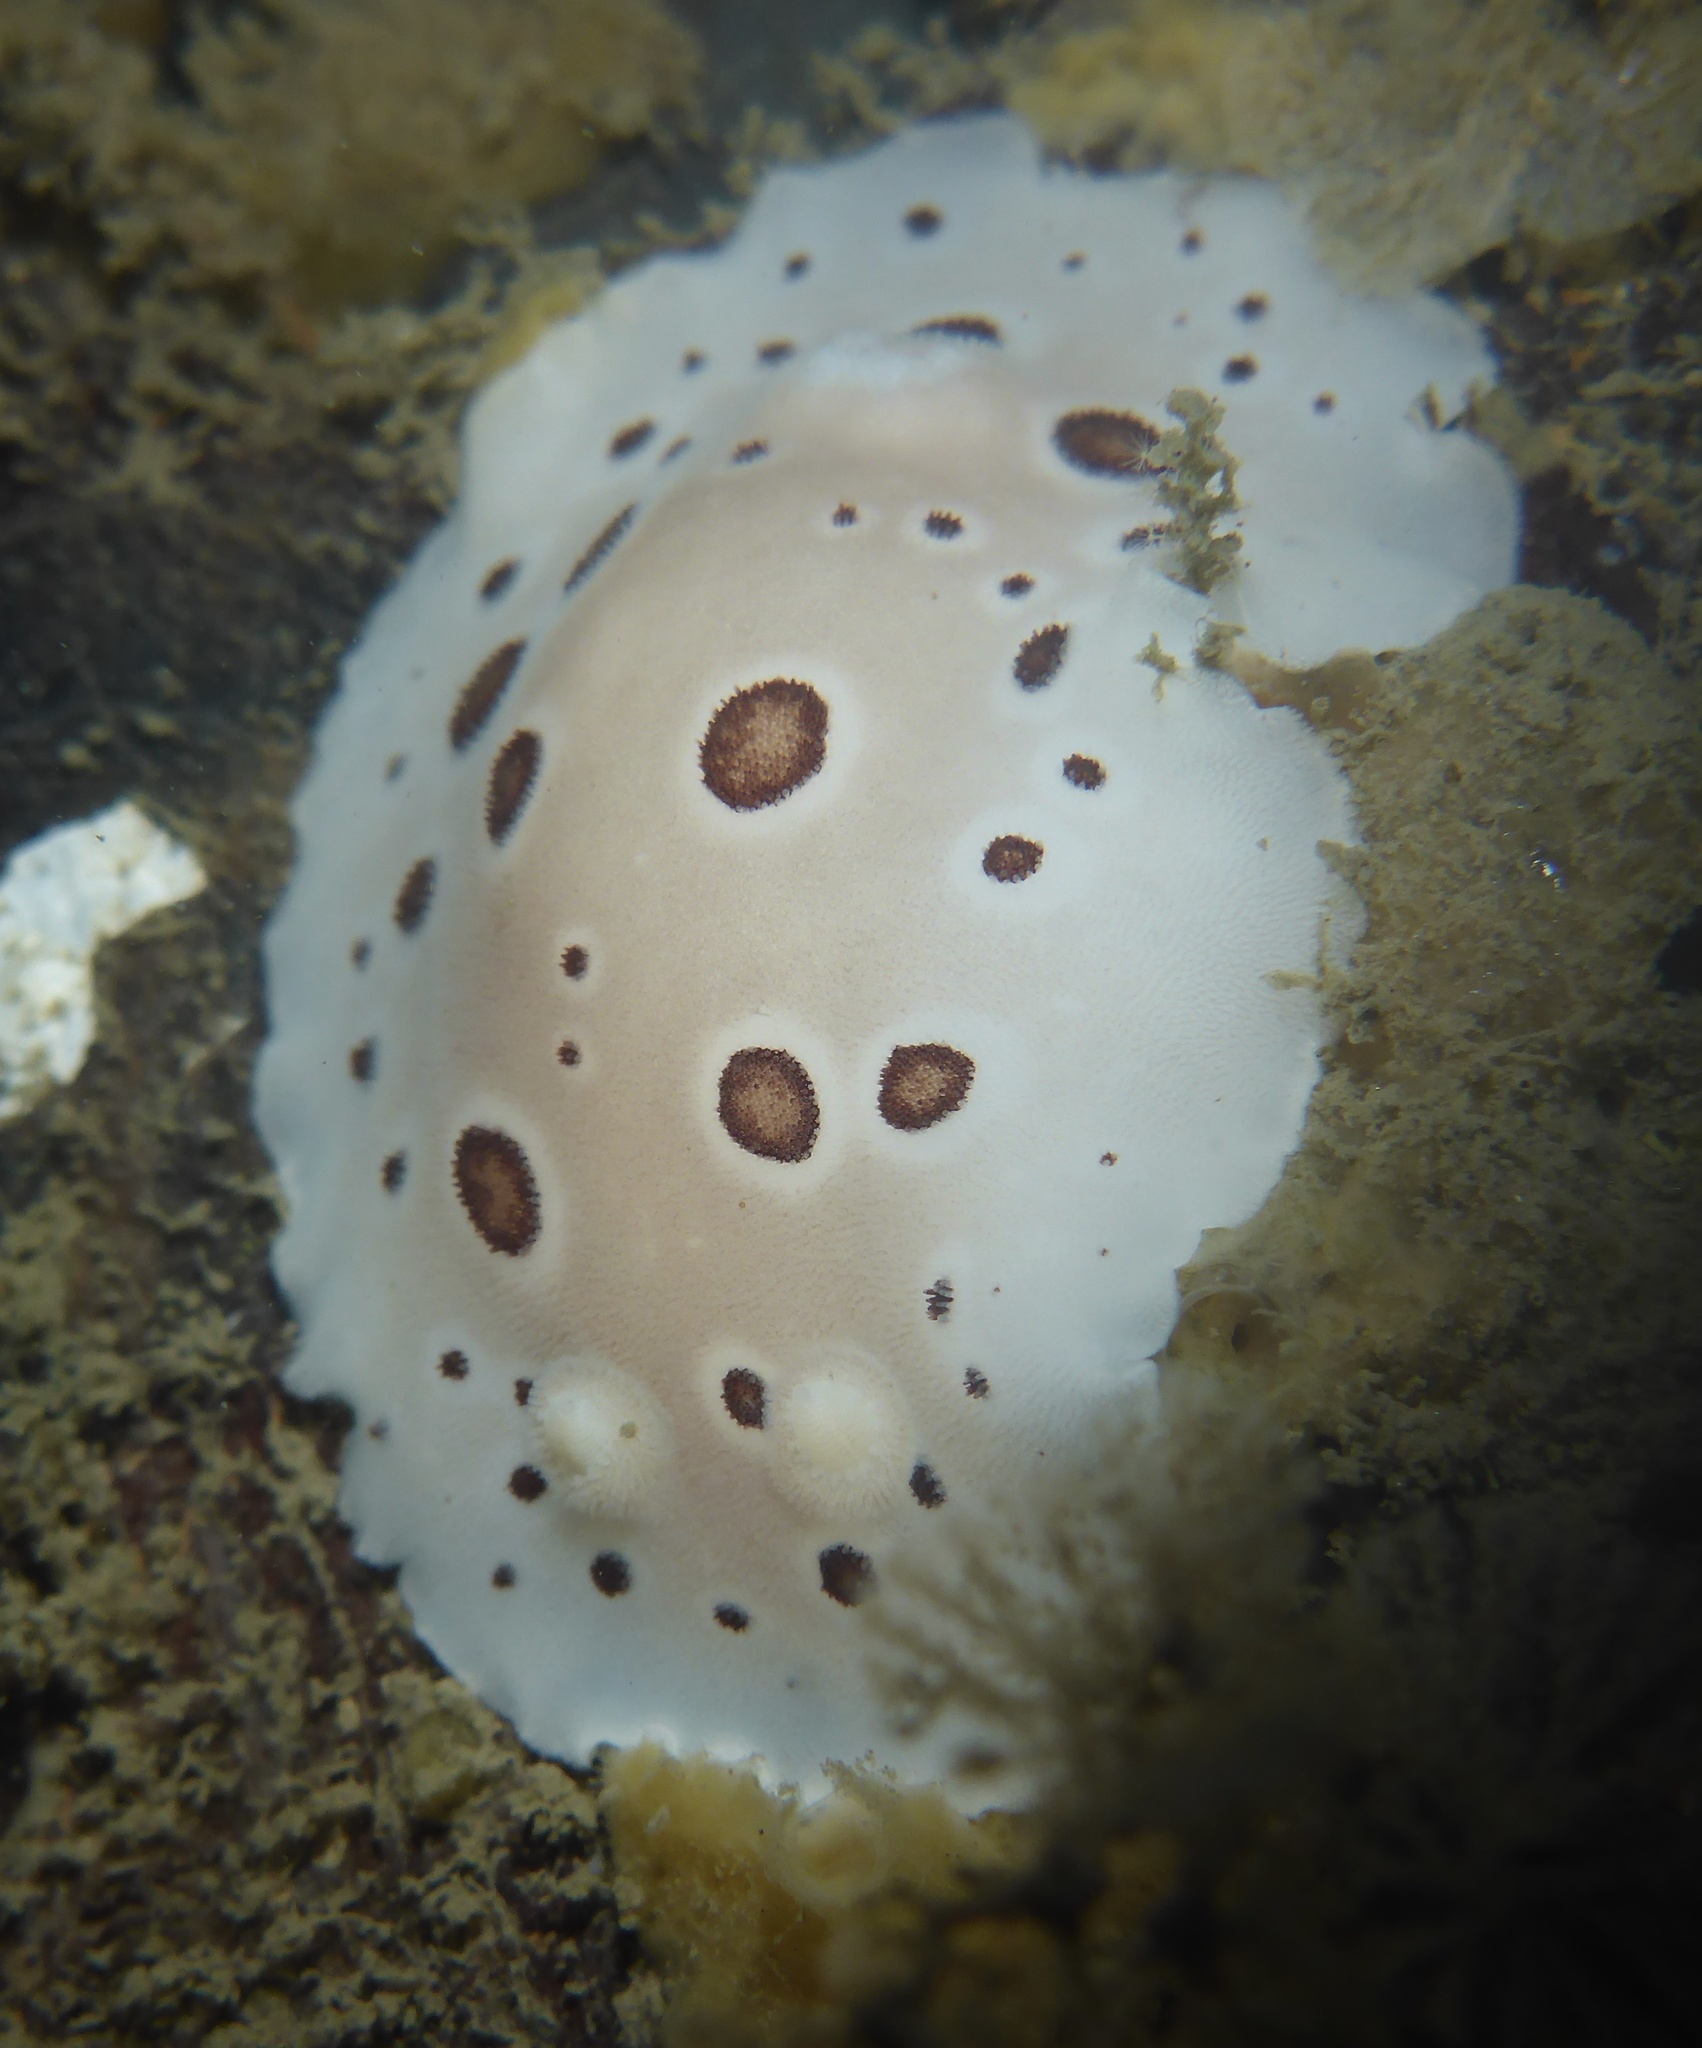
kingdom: Animalia
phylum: Mollusca
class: Gastropoda
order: Nudibranchia
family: Discodorididae
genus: Diaulula
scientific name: Diaulula odonoghuei
